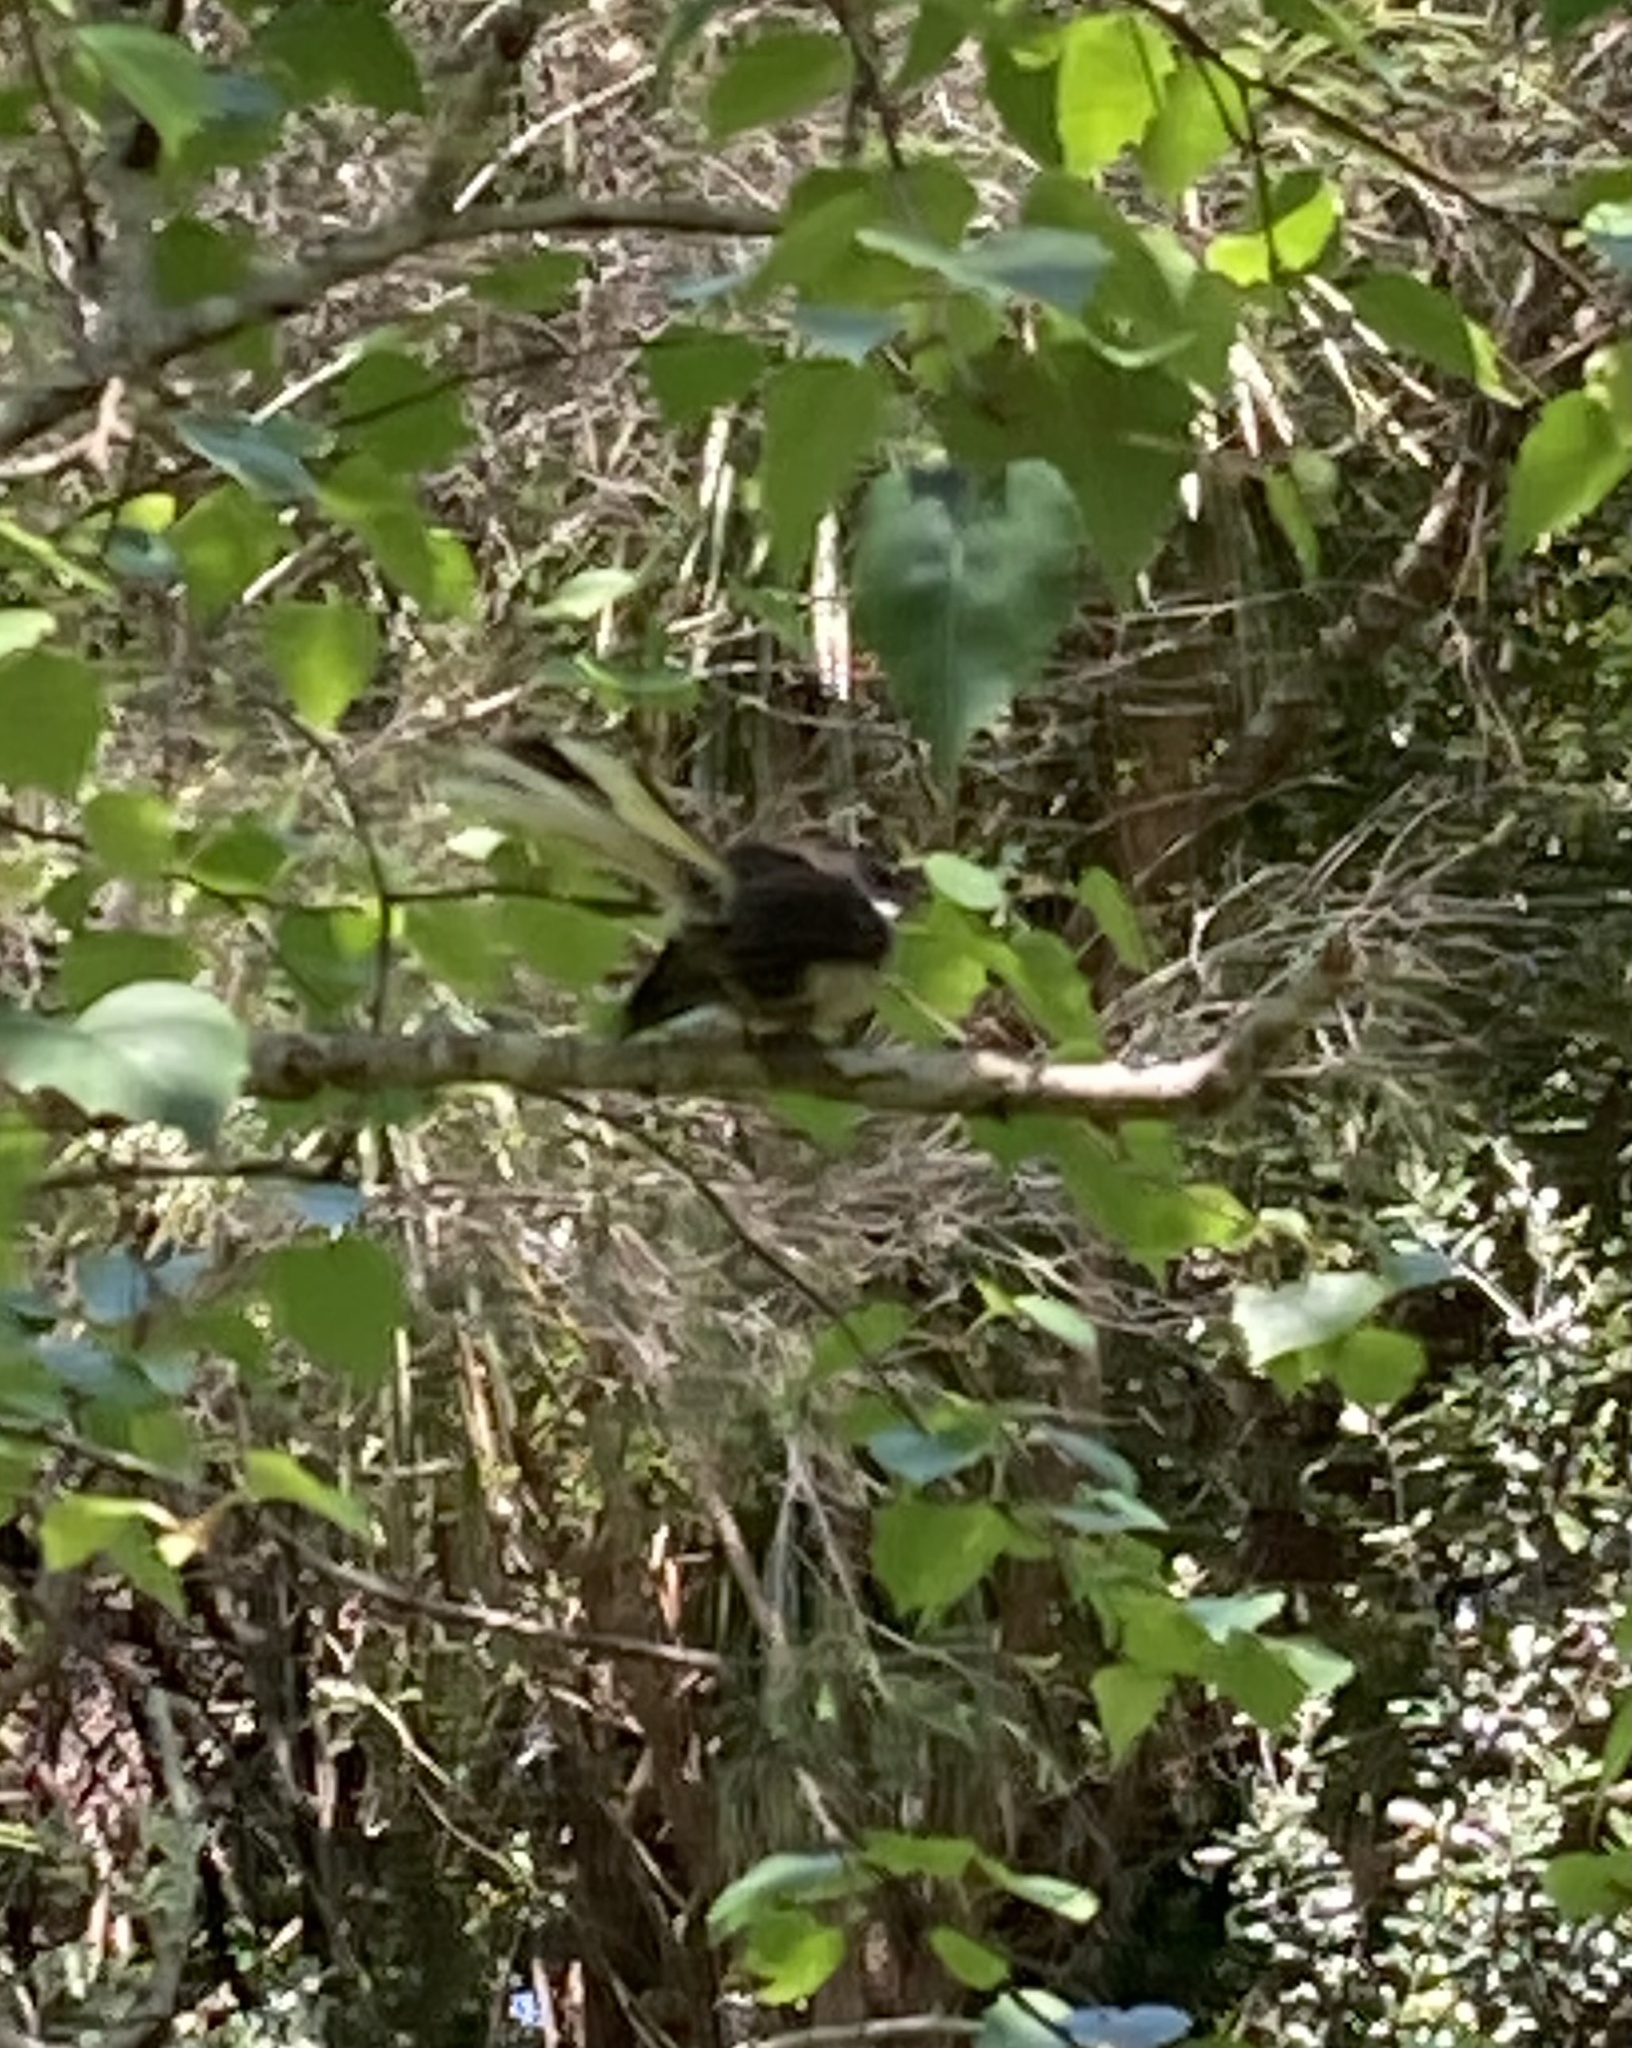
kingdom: Animalia
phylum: Chordata
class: Aves
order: Passeriformes
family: Rhipiduridae
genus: Rhipidura
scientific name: Rhipidura fuliginosa
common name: New zealand fantail
